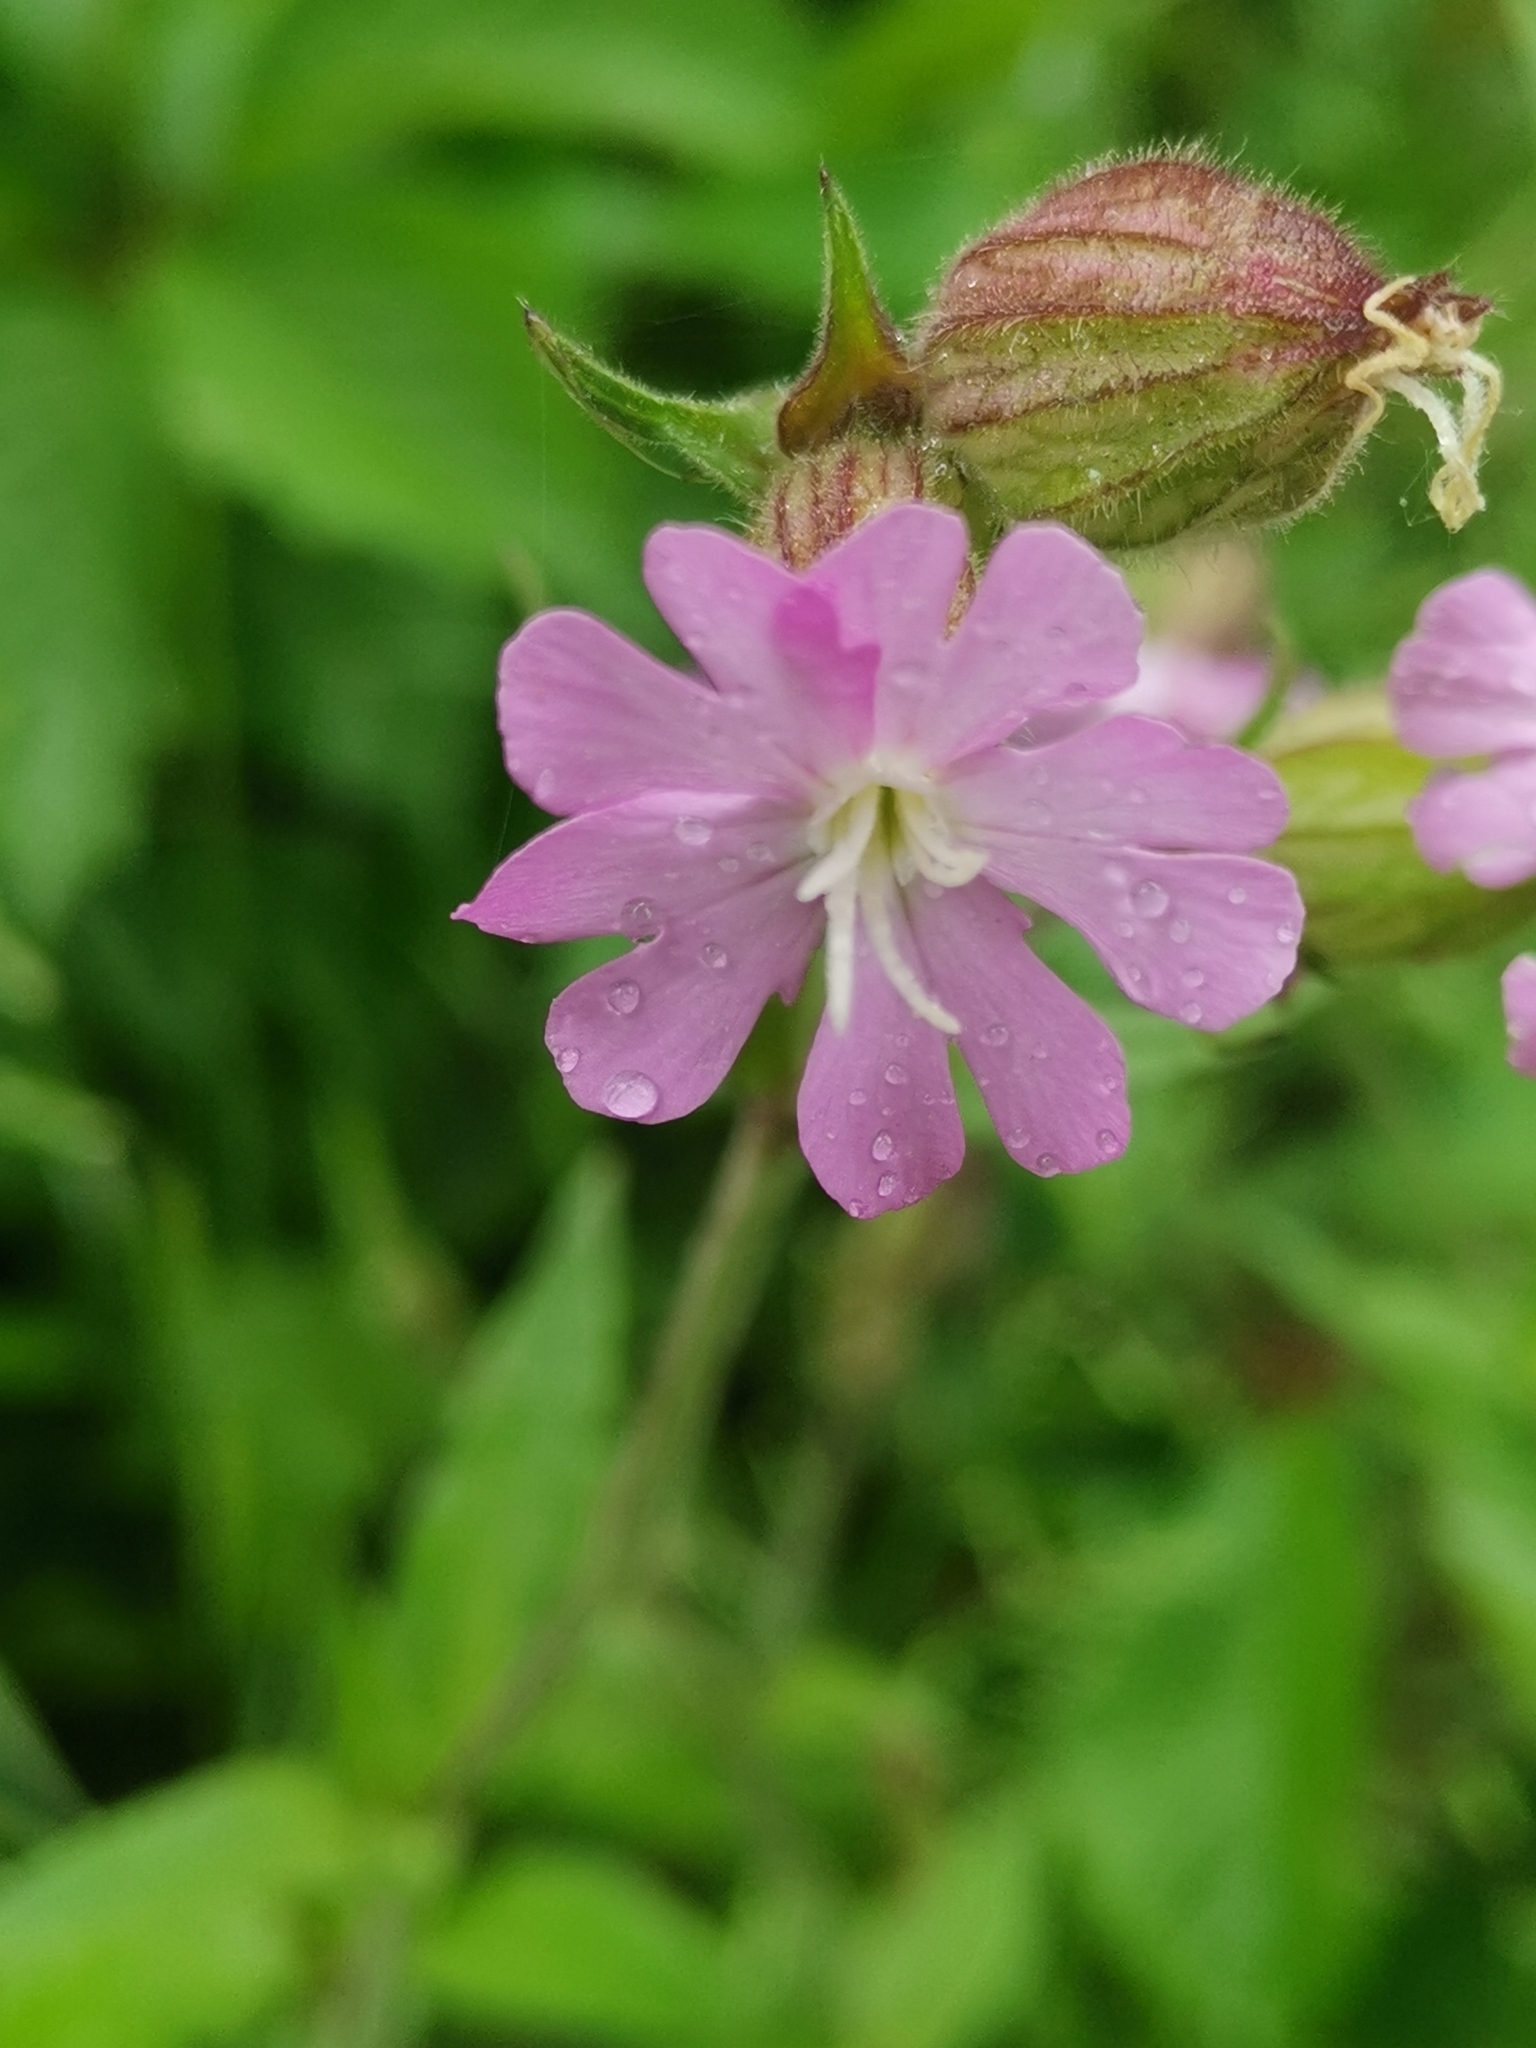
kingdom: Plantae
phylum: Tracheophyta
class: Magnoliopsida
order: Caryophyllales
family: Caryophyllaceae
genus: Silene
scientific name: Silene dioica
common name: Red campion
